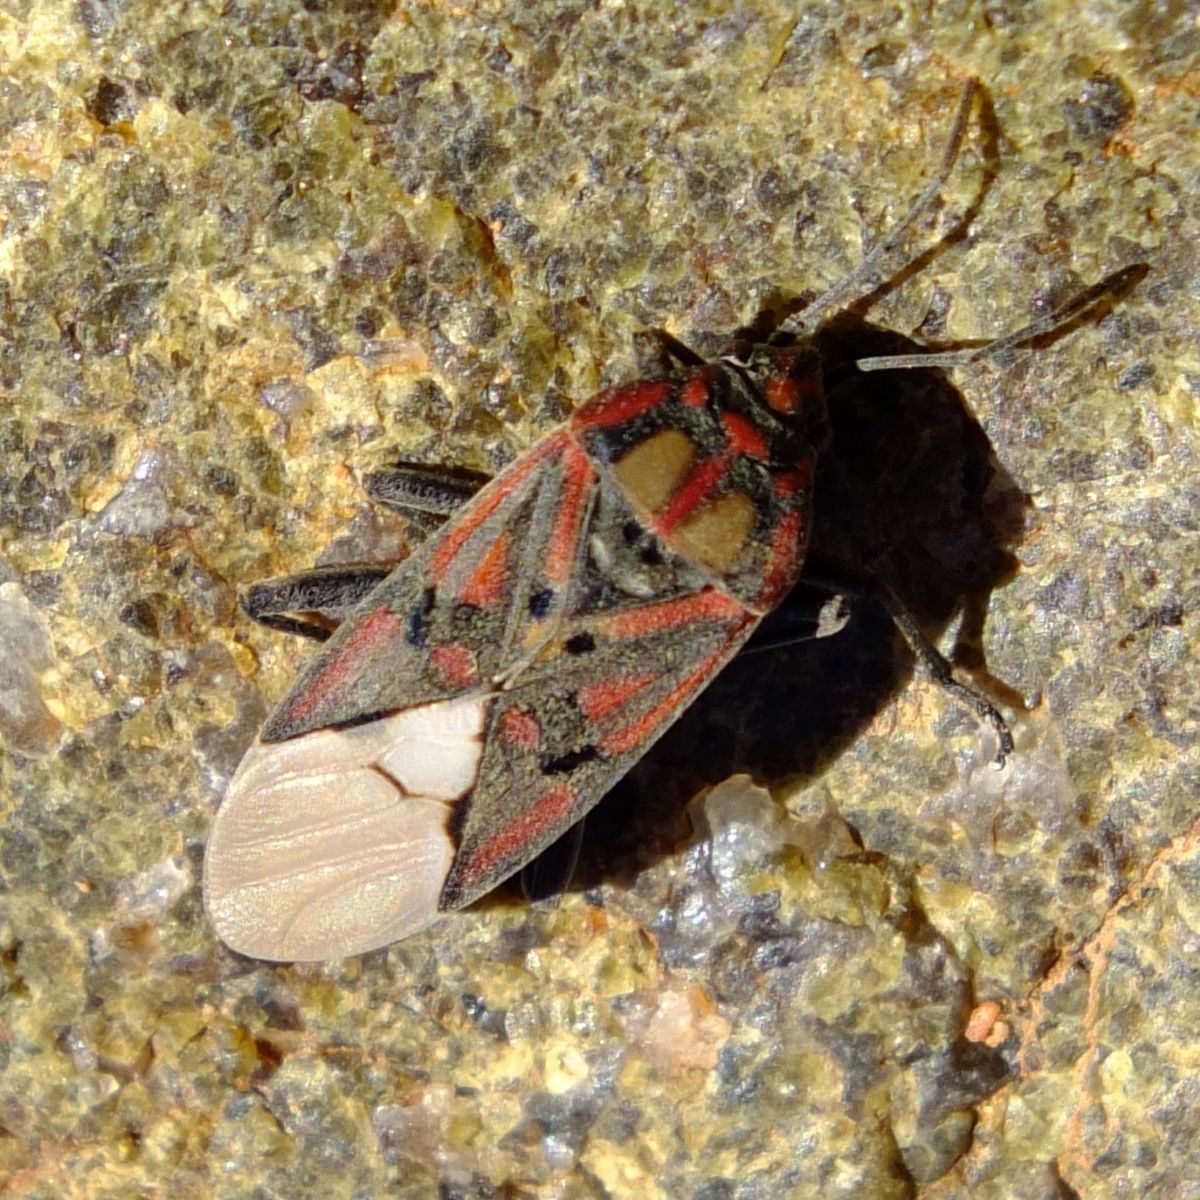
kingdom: Animalia
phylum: Arthropoda
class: Insecta
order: Hemiptera
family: Lygaeidae
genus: Spilostethus
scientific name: Spilostethus pandurus
